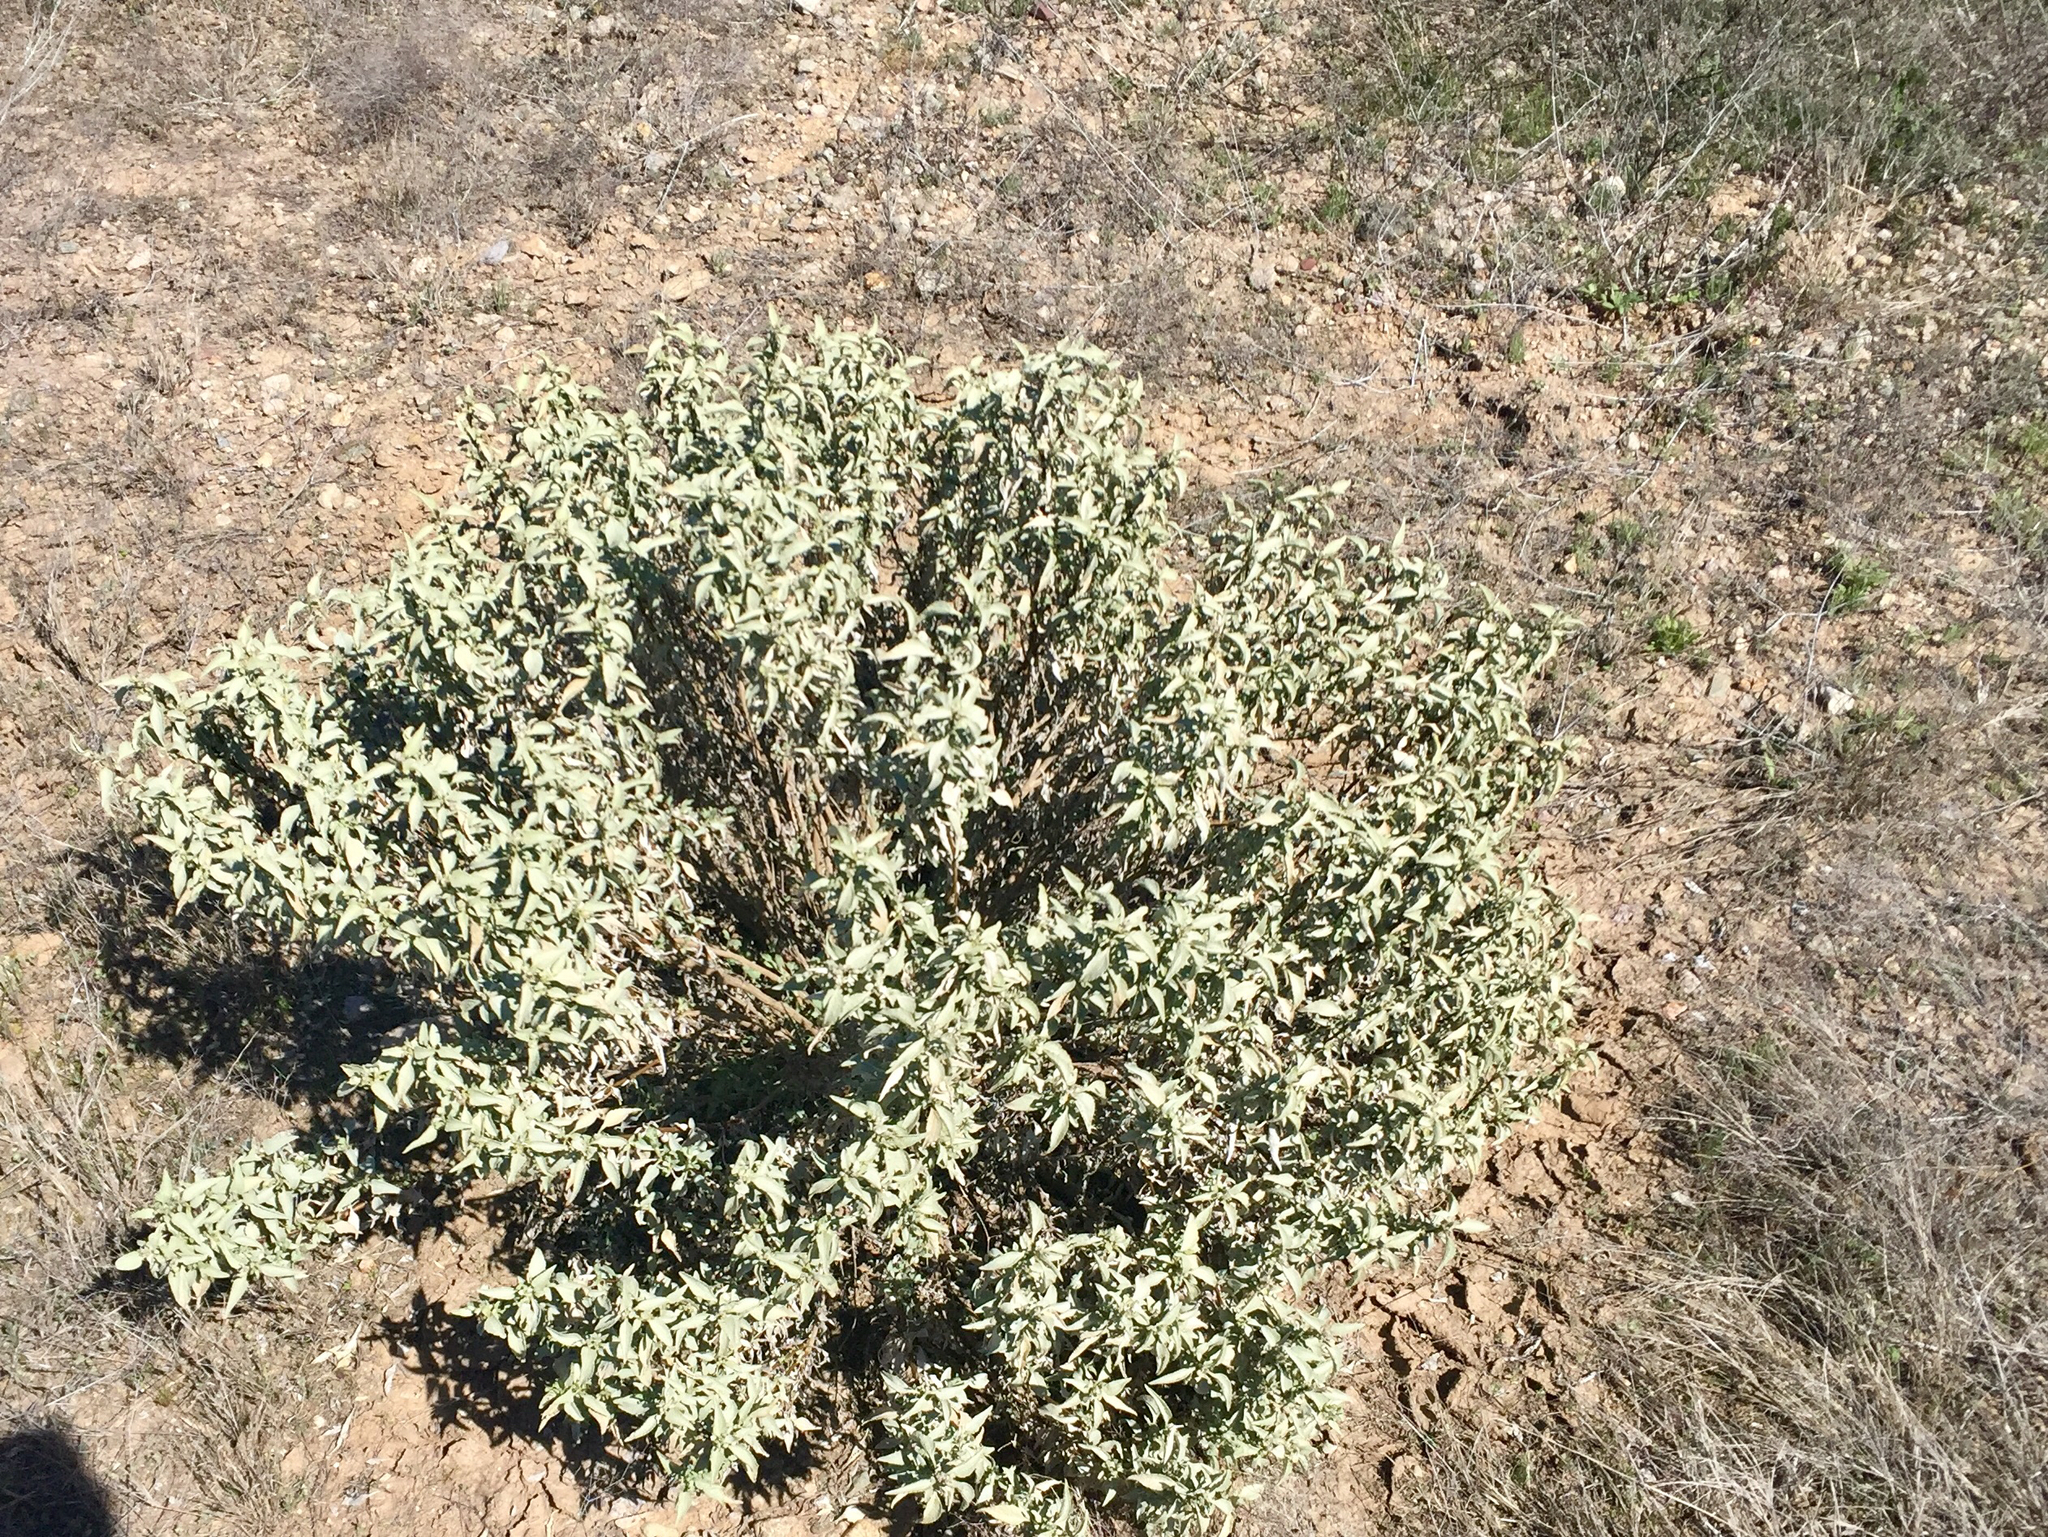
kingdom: Plantae
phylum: Tracheophyta
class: Magnoliopsida
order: Asterales
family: Asteraceae
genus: Encelia
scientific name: Encelia farinosa
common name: Brittlebush
